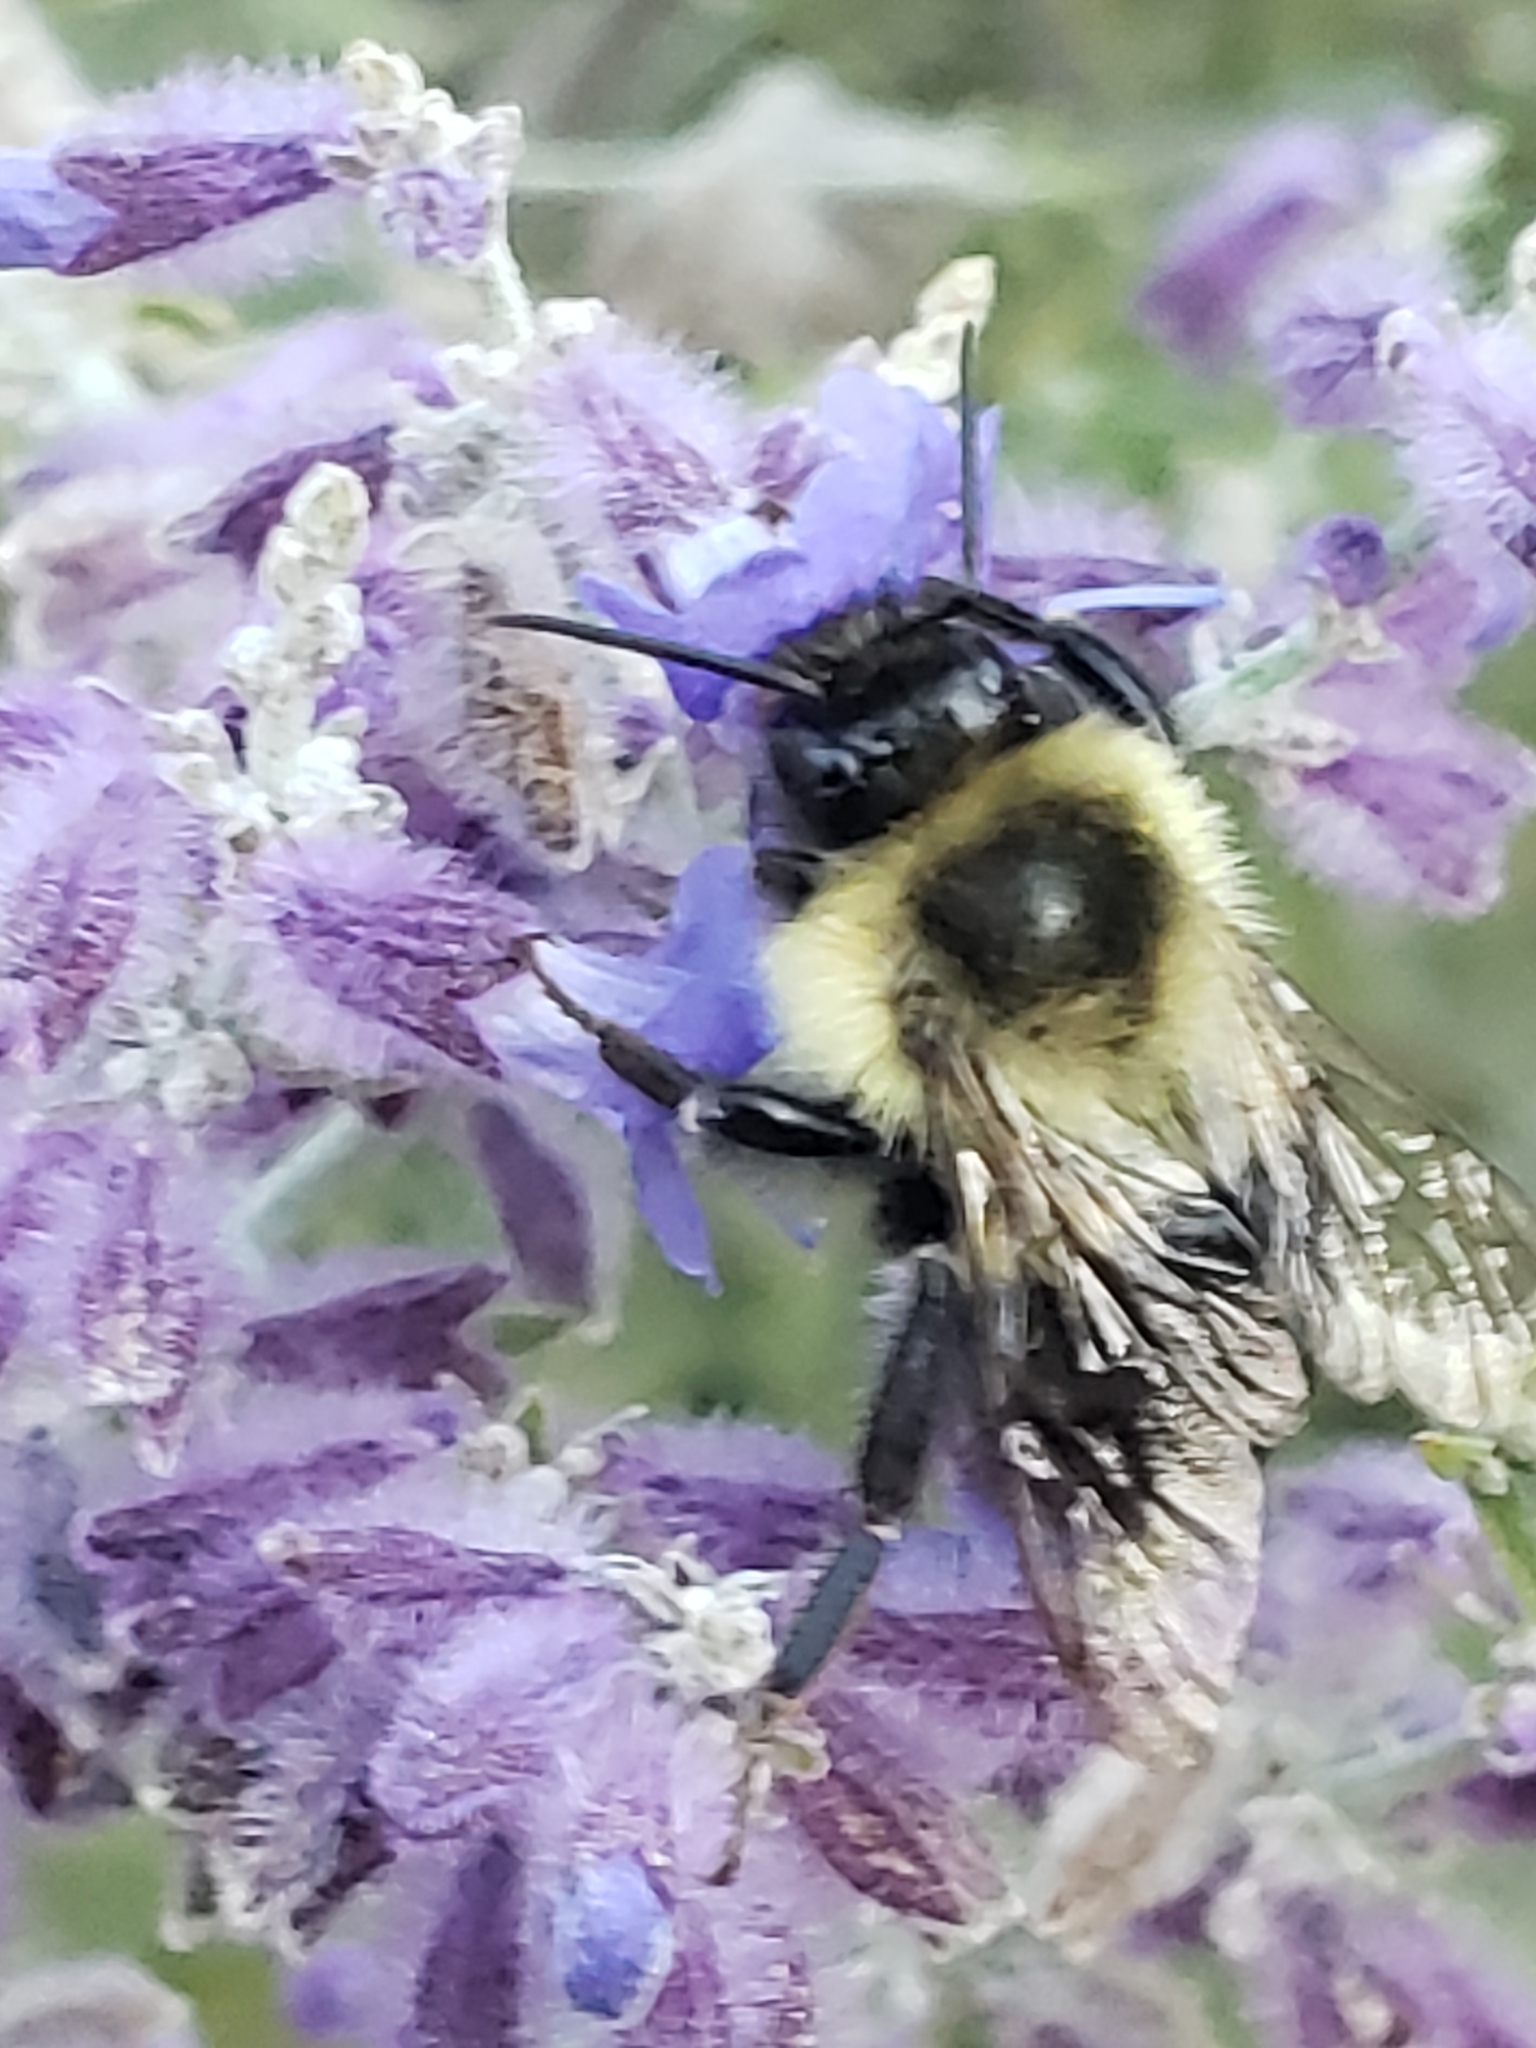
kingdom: Animalia
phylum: Arthropoda
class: Insecta
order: Hymenoptera
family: Apidae
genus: Bombus
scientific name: Bombus impatiens
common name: Common eastern bumble bee
